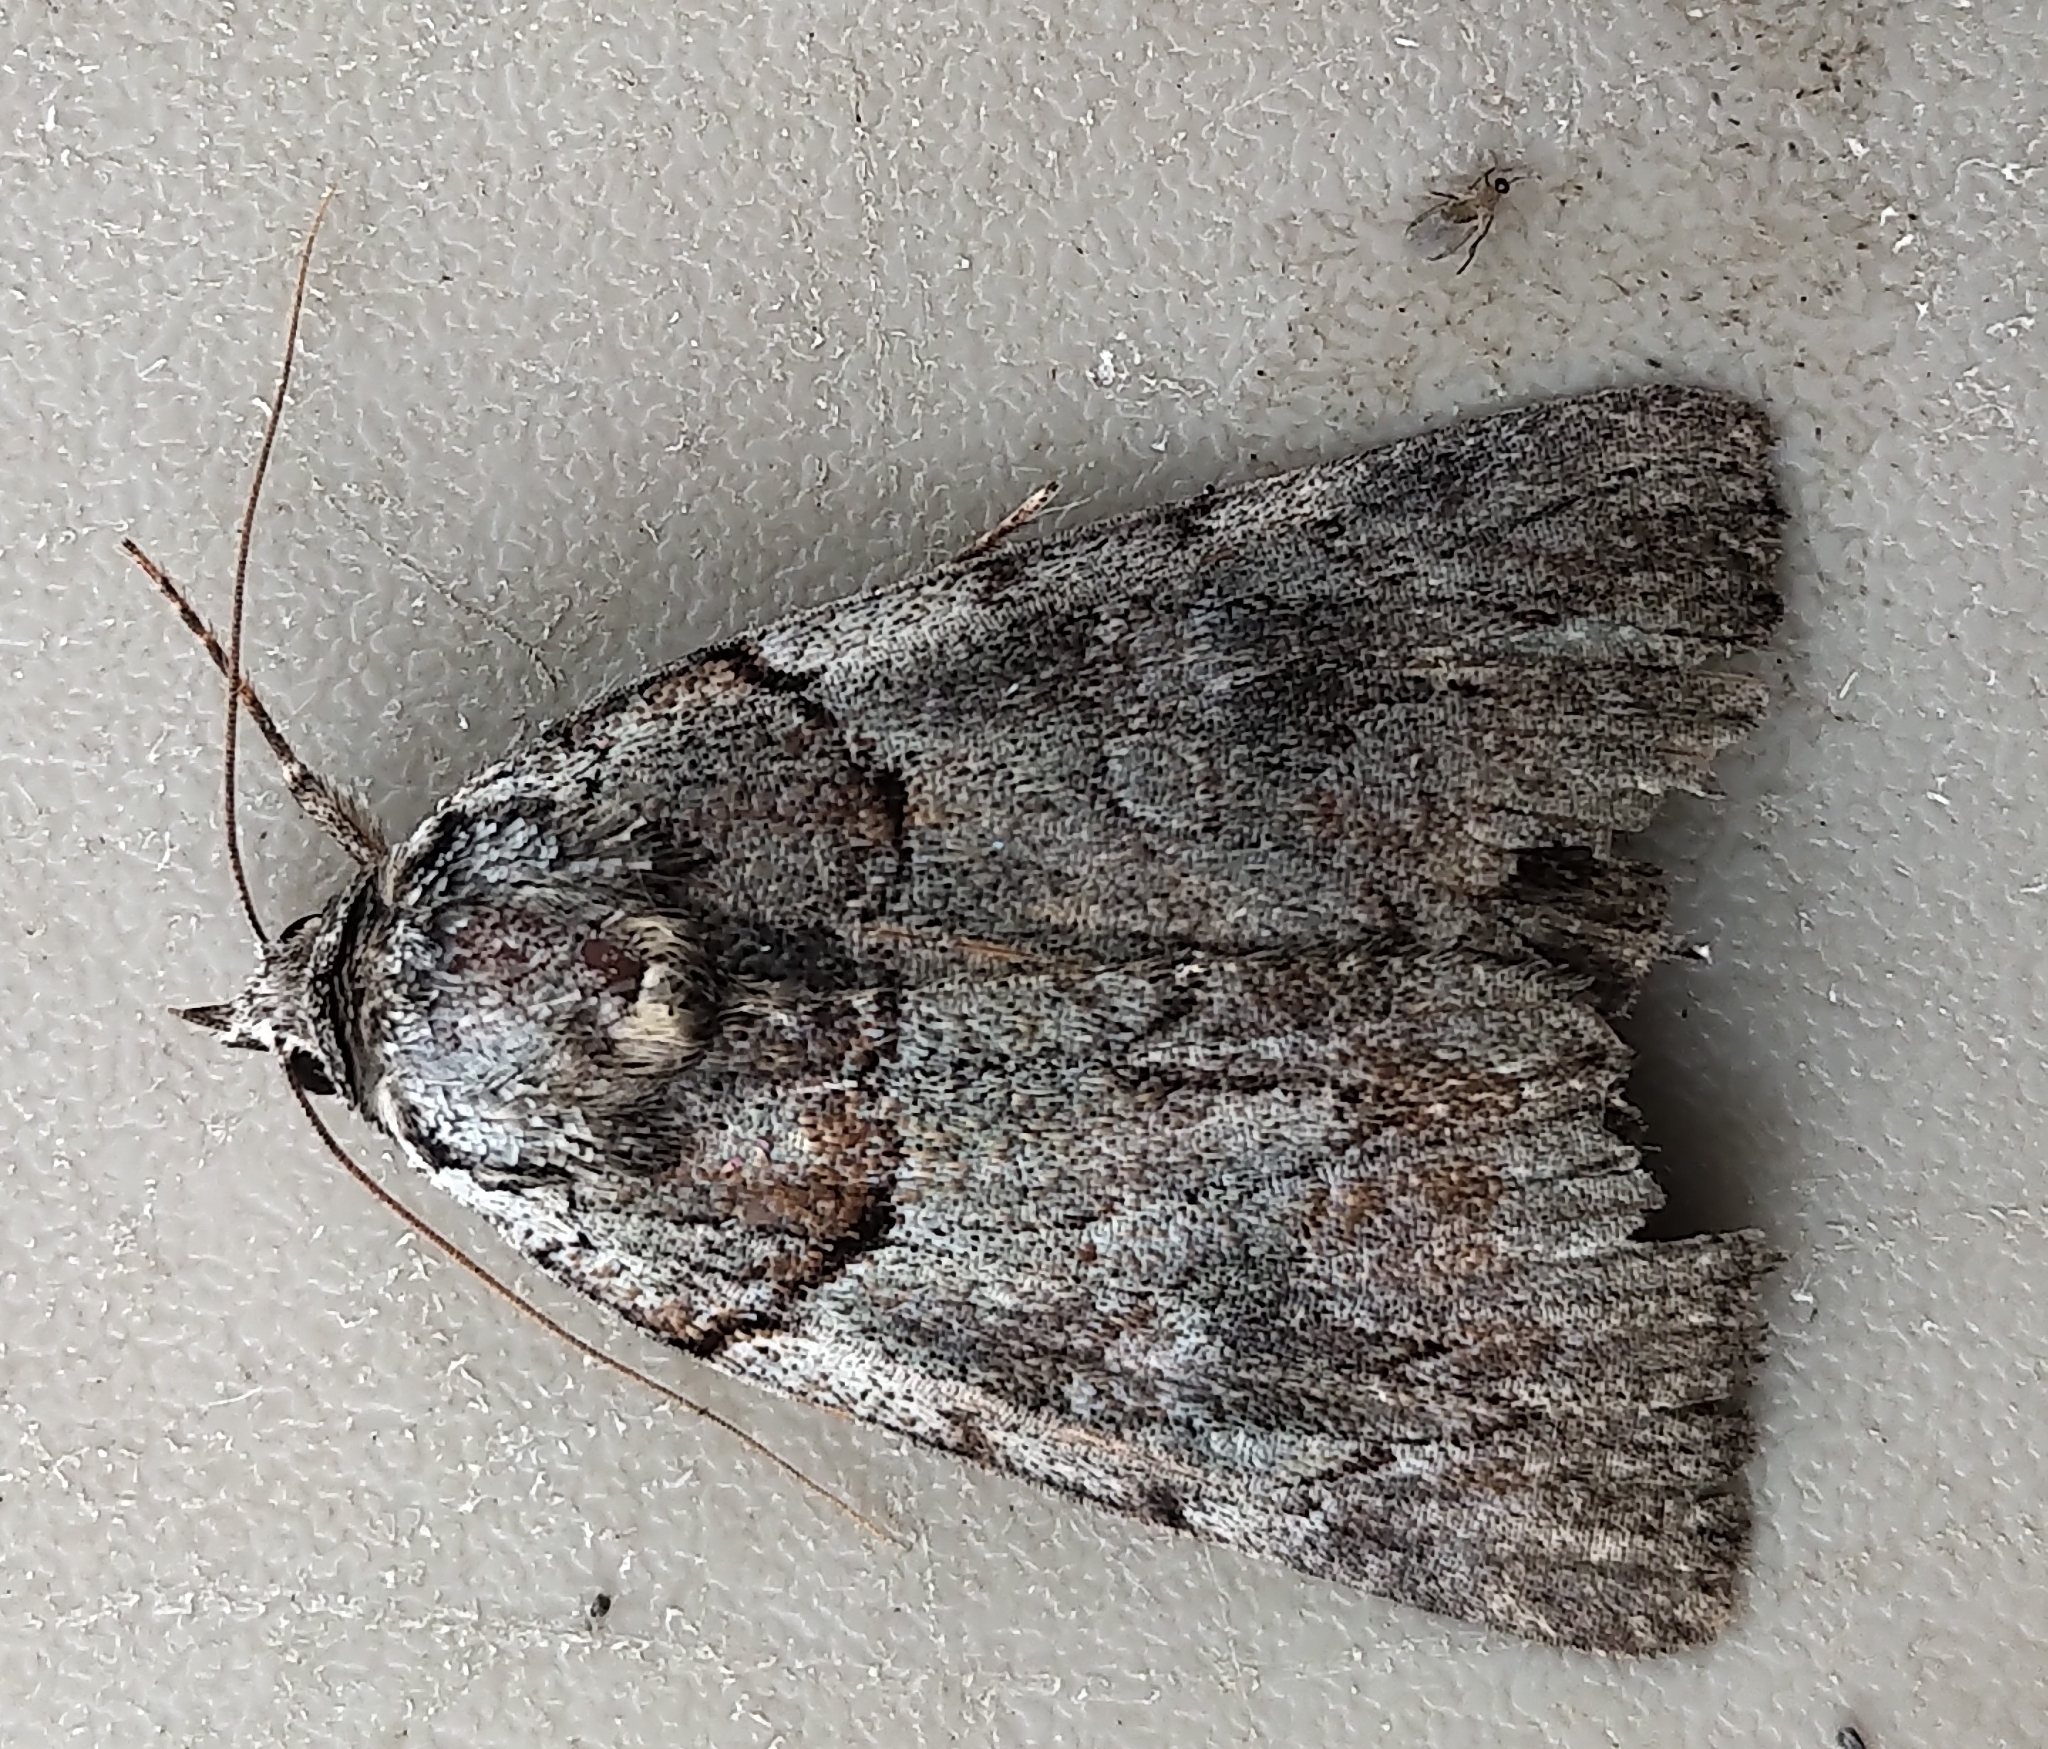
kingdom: Animalia
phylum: Arthropoda
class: Insecta
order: Lepidoptera
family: Erebidae
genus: Catocala
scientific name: Catocala praeclara
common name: Praeclara underwing
